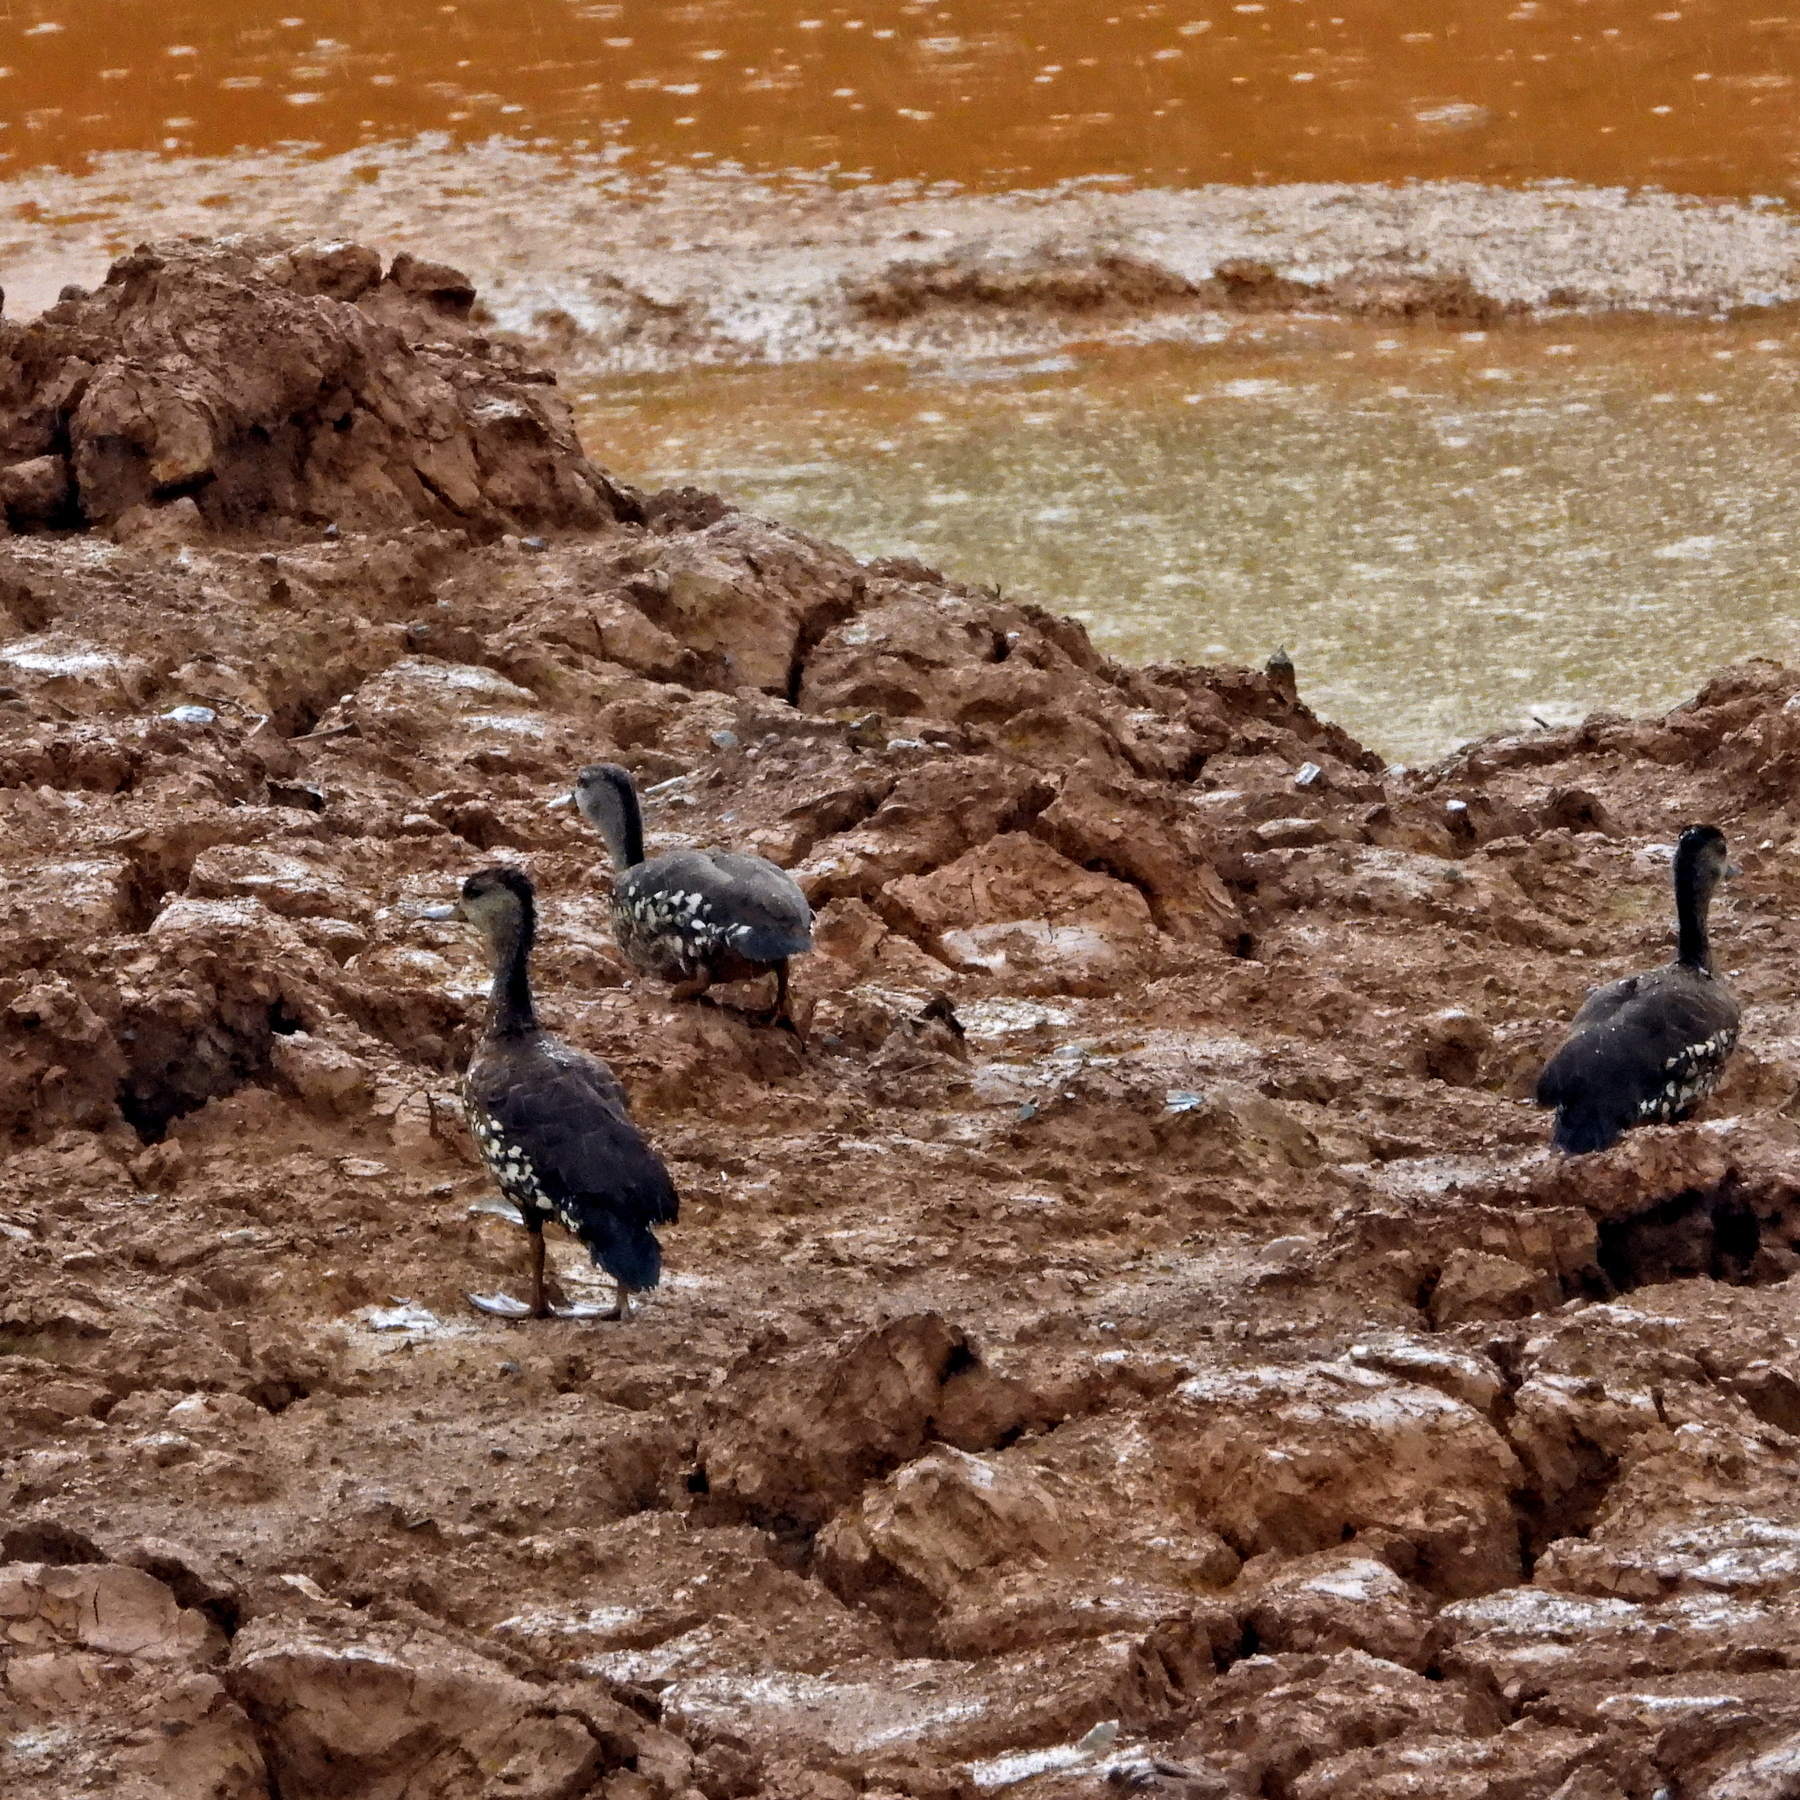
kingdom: Animalia
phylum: Chordata
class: Aves
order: Anseriformes
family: Anatidae
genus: Dendrocygna
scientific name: Dendrocygna guttata
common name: Spotted whistling-duck
